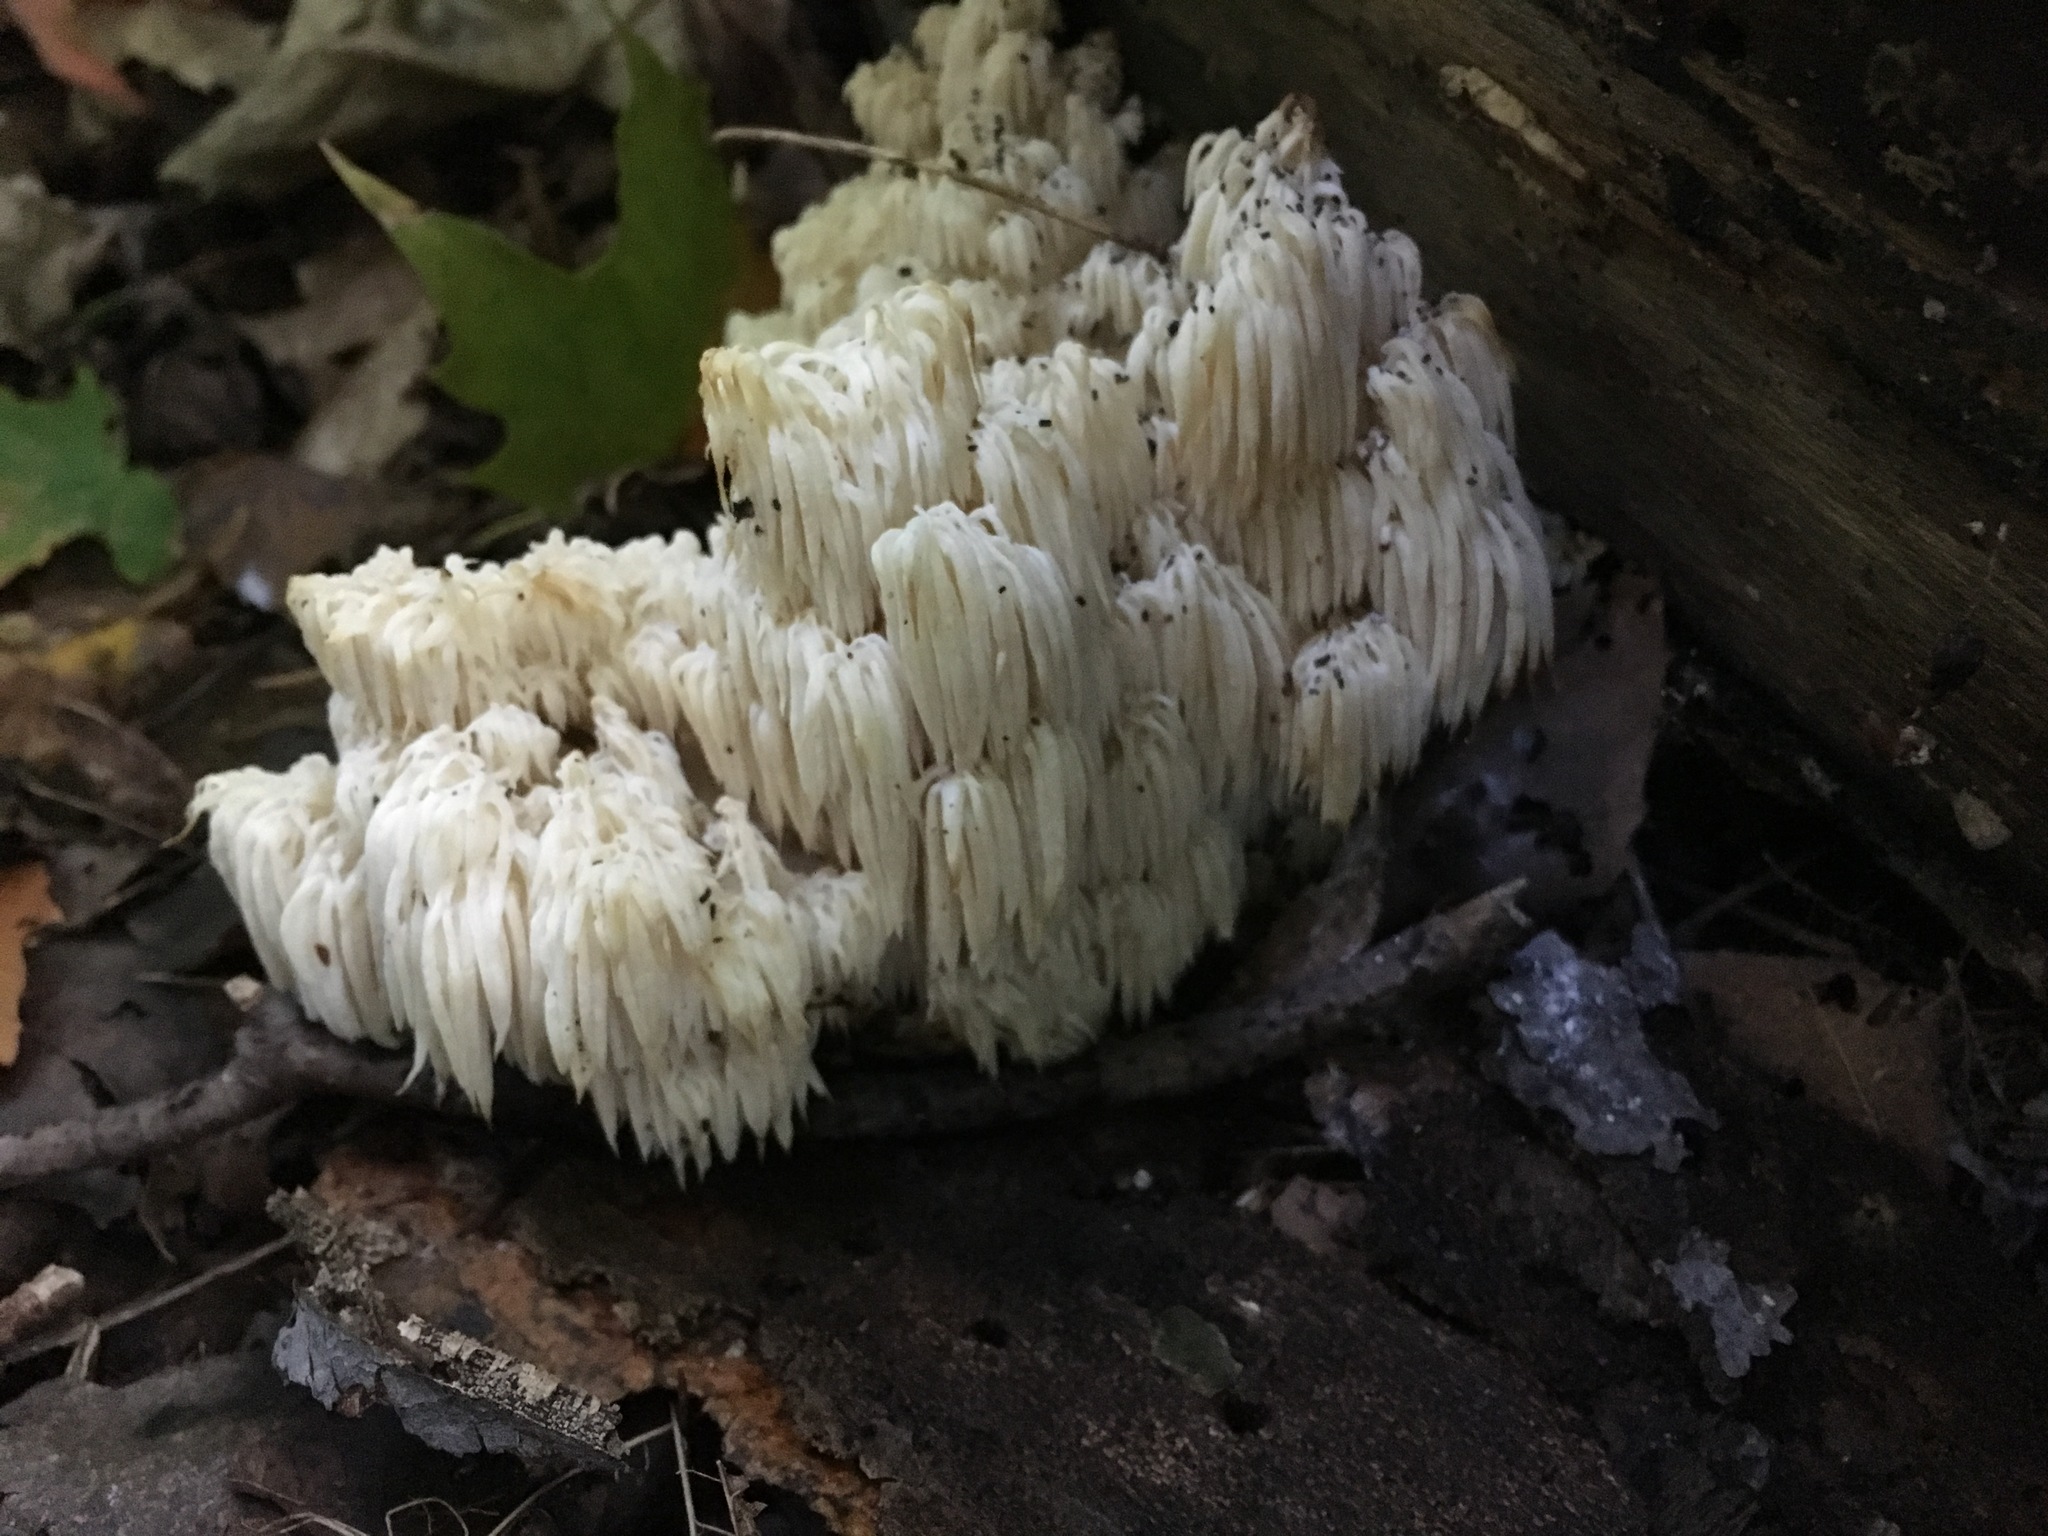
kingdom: Fungi
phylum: Basidiomycota
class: Agaricomycetes
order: Russulales
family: Hericiaceae
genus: Hericium
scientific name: Hericium americanum
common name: Bear's head tooth
